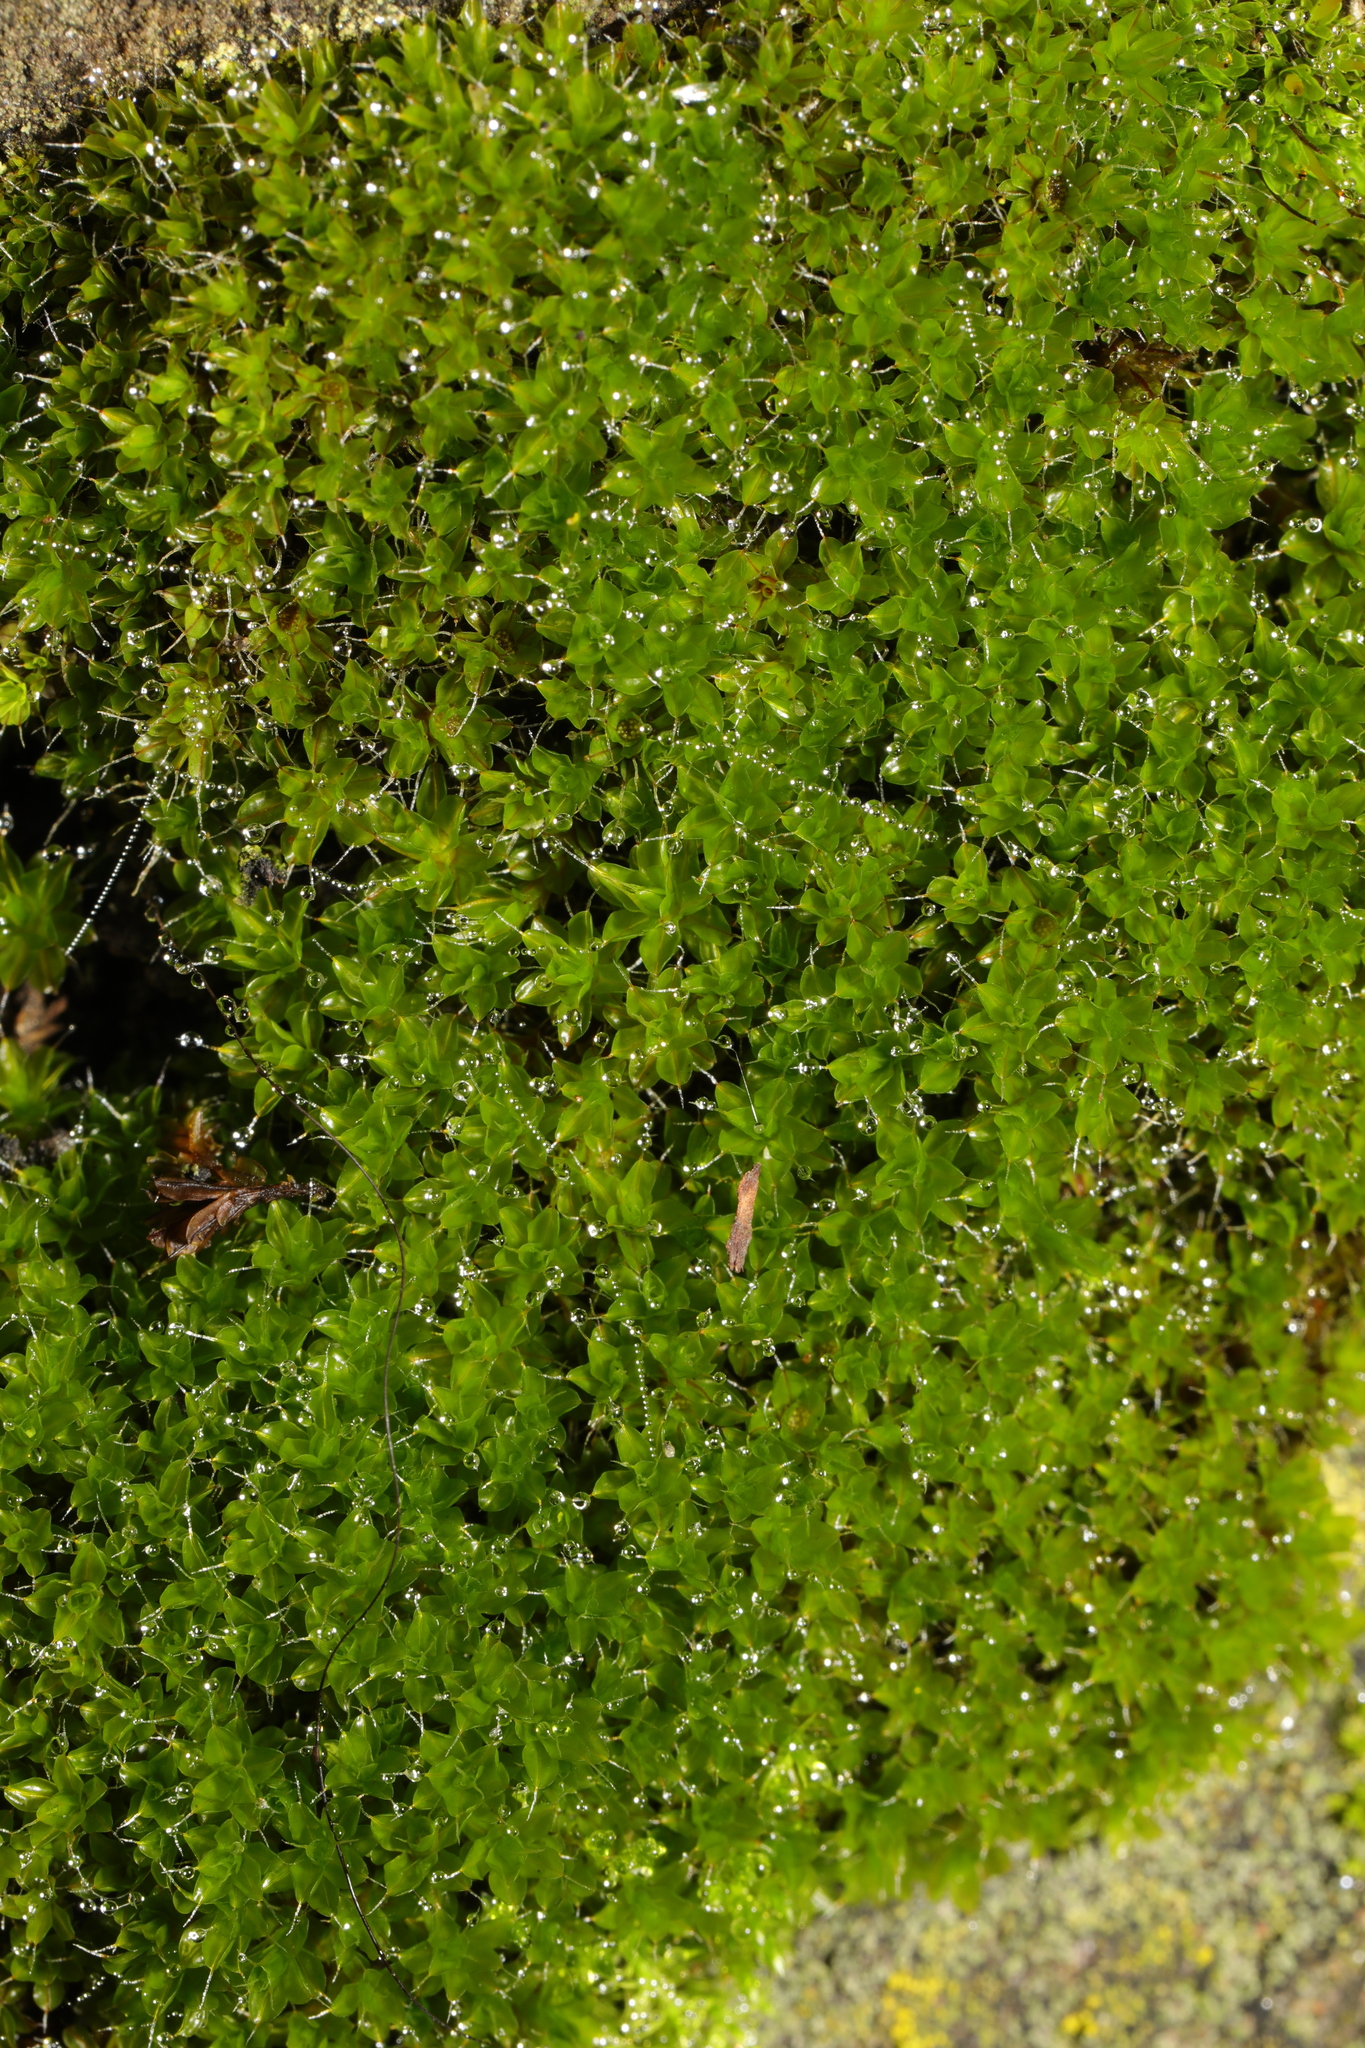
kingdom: Plantae
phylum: Bryophyta
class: Bryopsida
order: Pottiales
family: Pottiaceae
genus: Syntrichia
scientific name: Syntrichia montana
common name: Intermediate screw-moss
